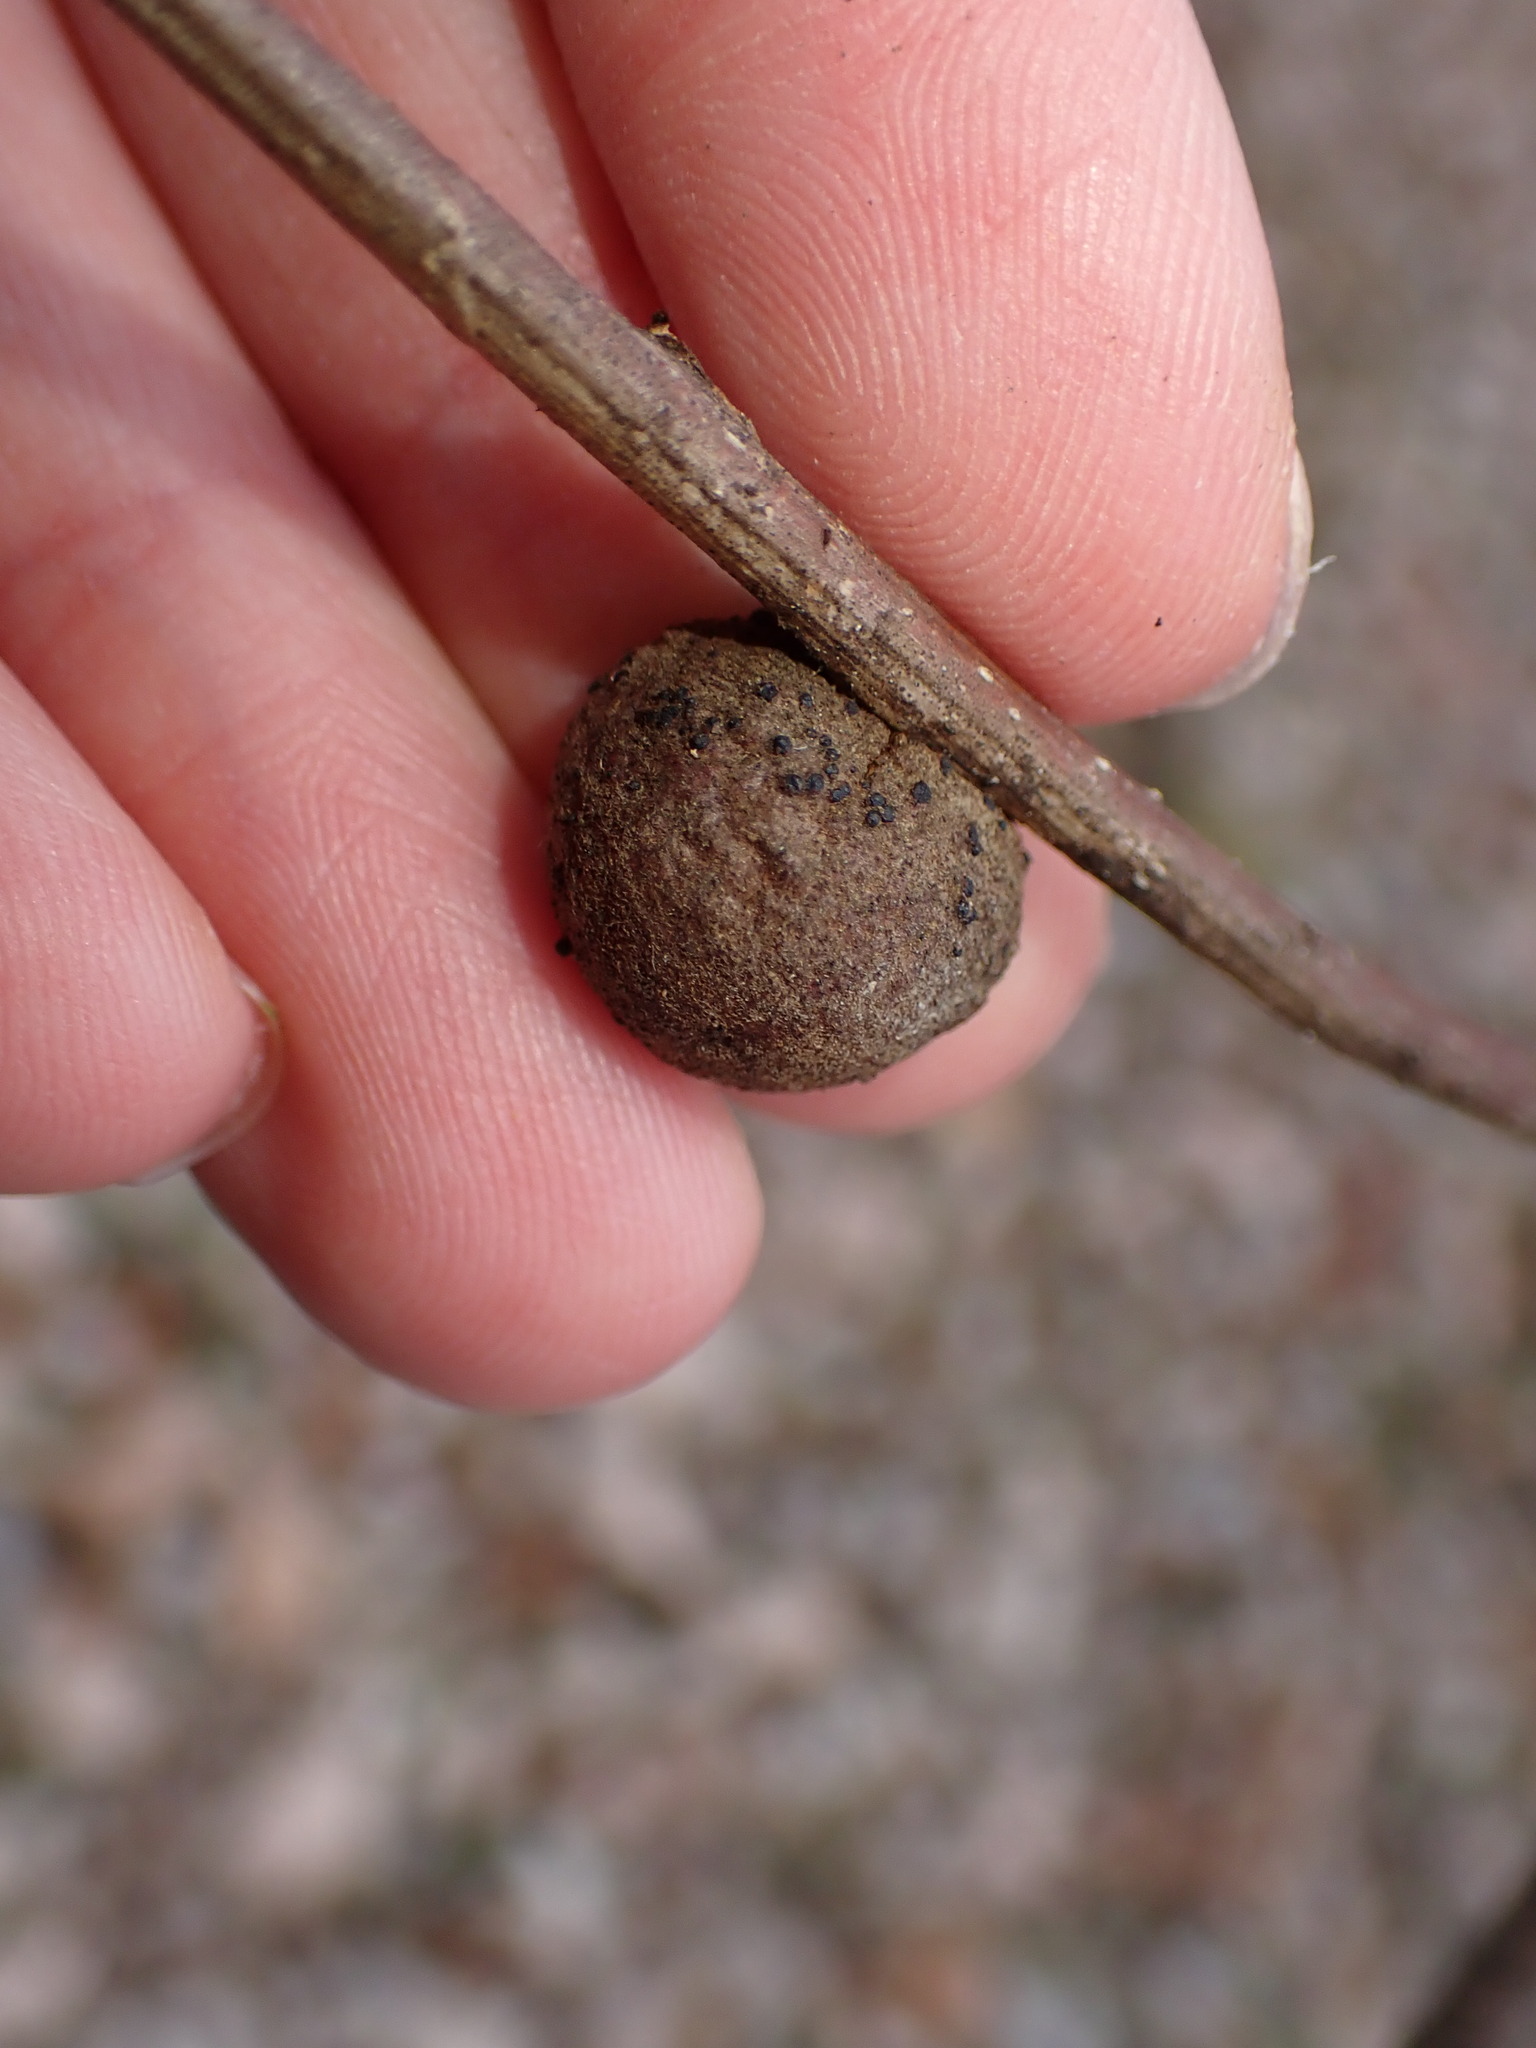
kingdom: Animalia
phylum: Arthropoda
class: Insecta
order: Hymenoptera
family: Cynipidae
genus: Disholcaspis
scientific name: Disholcaspis
